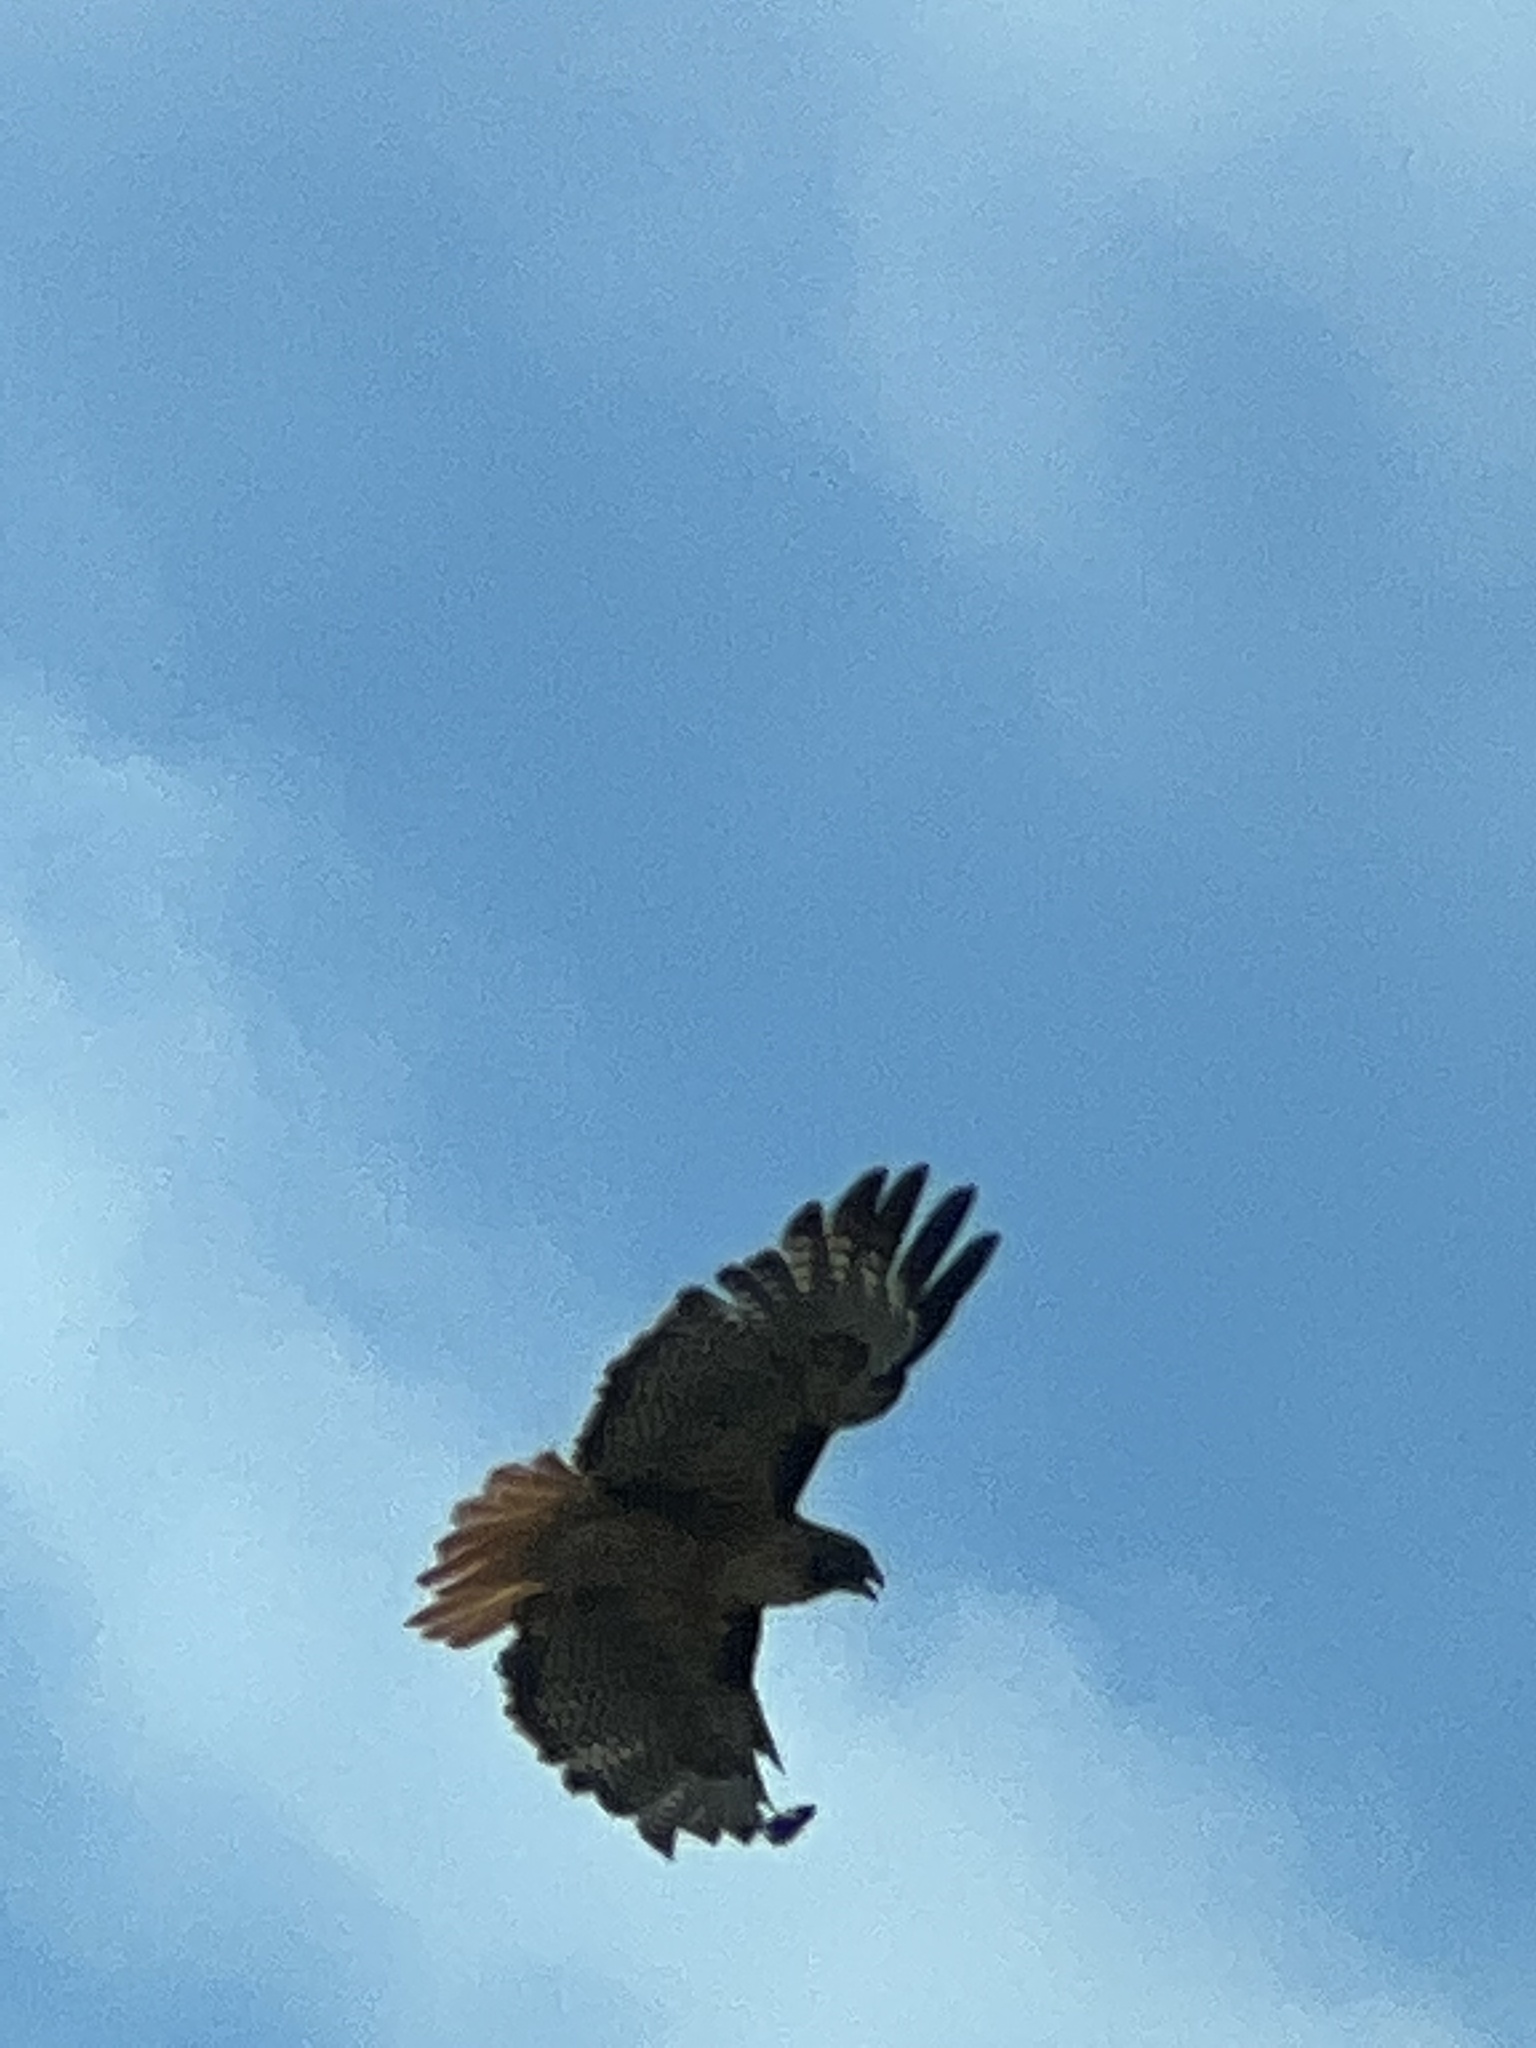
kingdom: Animalia
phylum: Chordata
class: Aves
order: Accipitriformes
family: Accipitridae
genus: Buteo
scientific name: Buteo jamaicensis
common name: Red-tailed hawk
